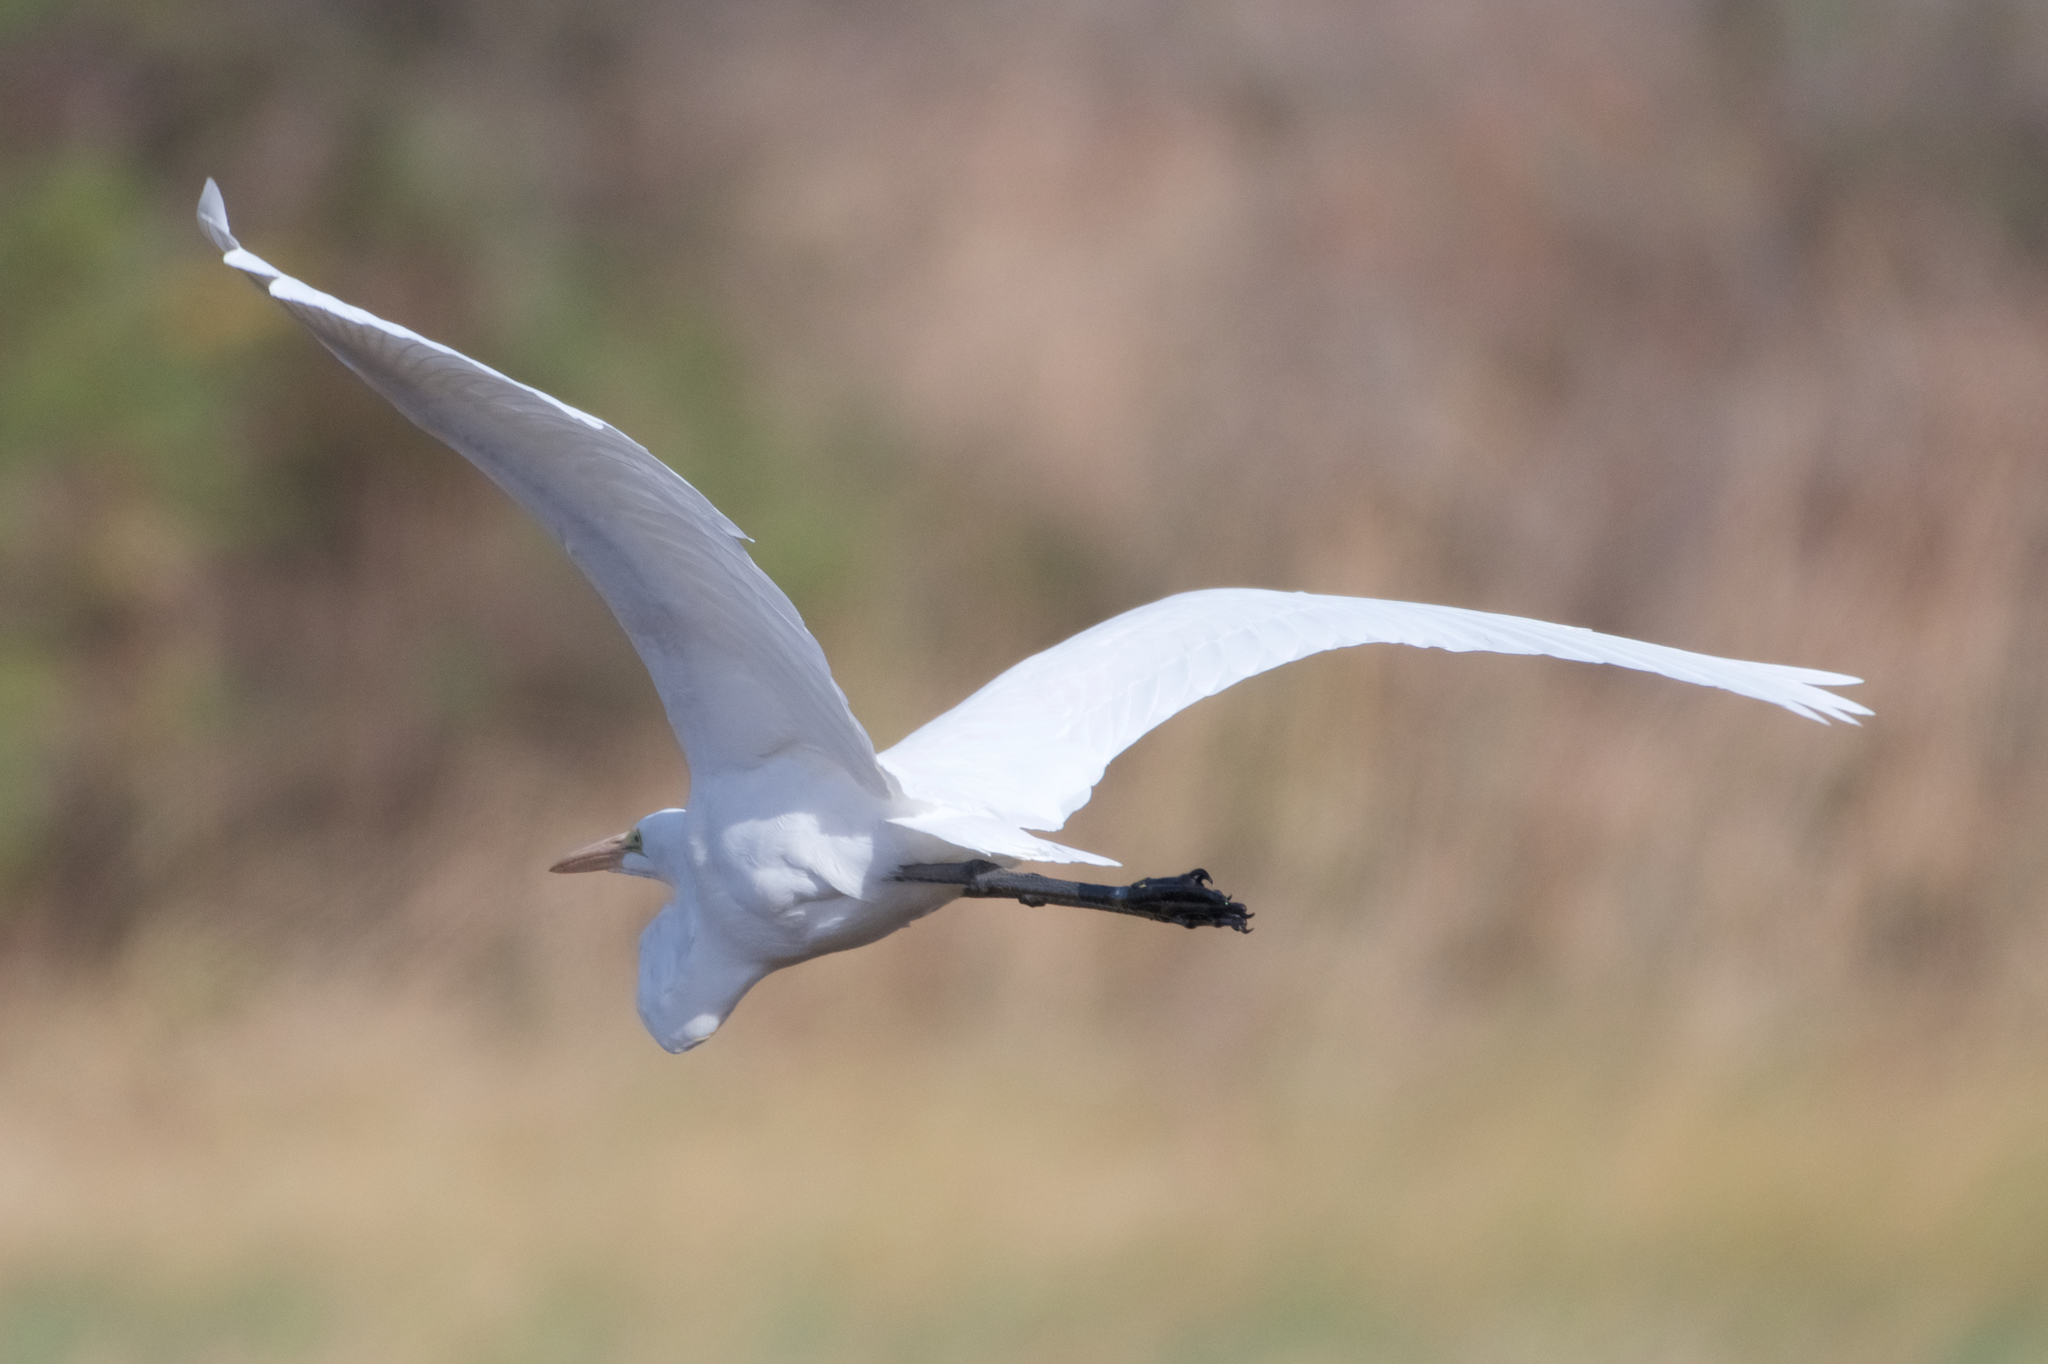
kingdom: Animalia
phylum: Chordata
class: Aves
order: Pelecaniformes
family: Ardeidae
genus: Ardea
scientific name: Ardea alba
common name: Great egret
